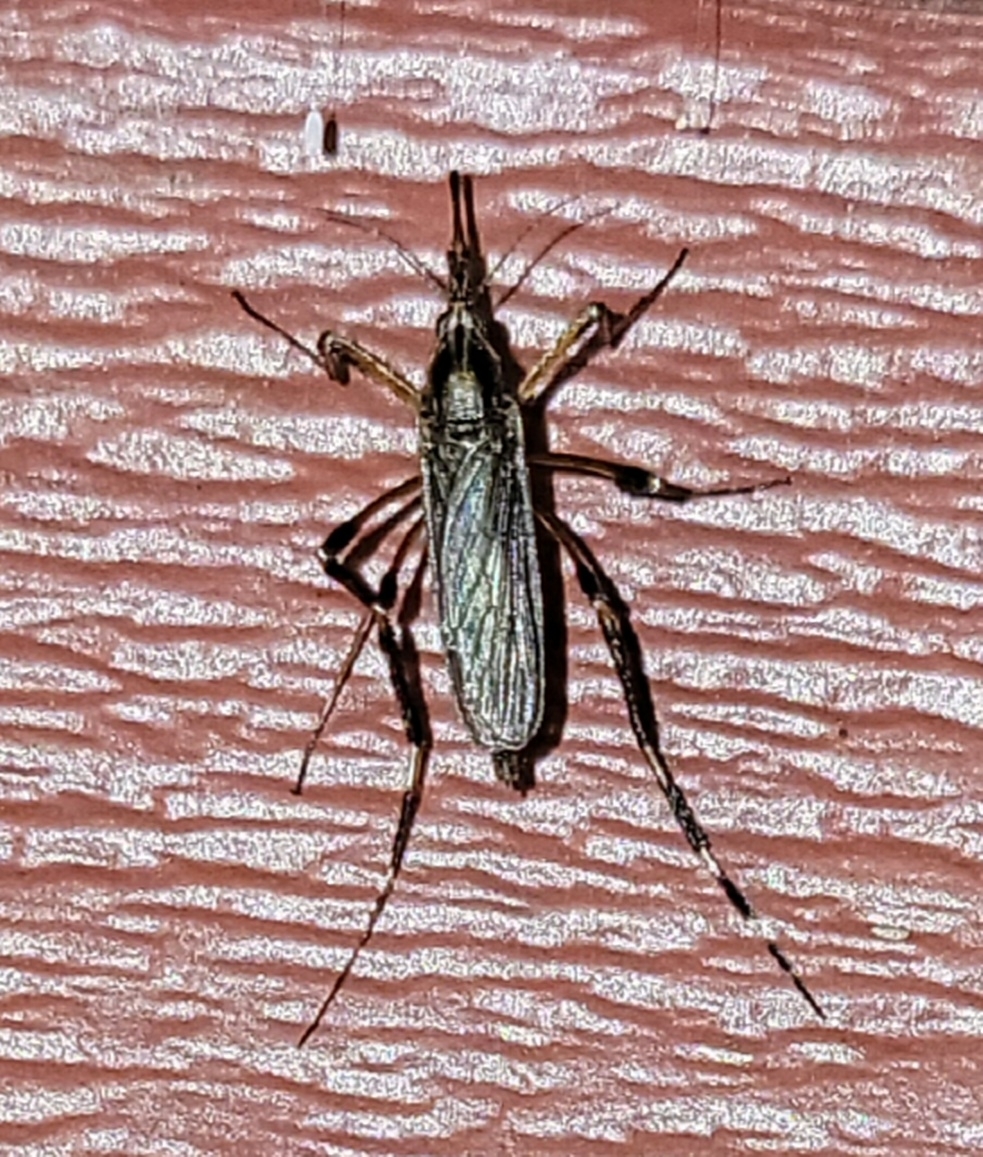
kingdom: Animalia
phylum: Arthropoda
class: Insecta
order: Diptera
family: Culicidae
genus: Psorophora
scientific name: Psorophora ciliata
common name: Gallinipper
